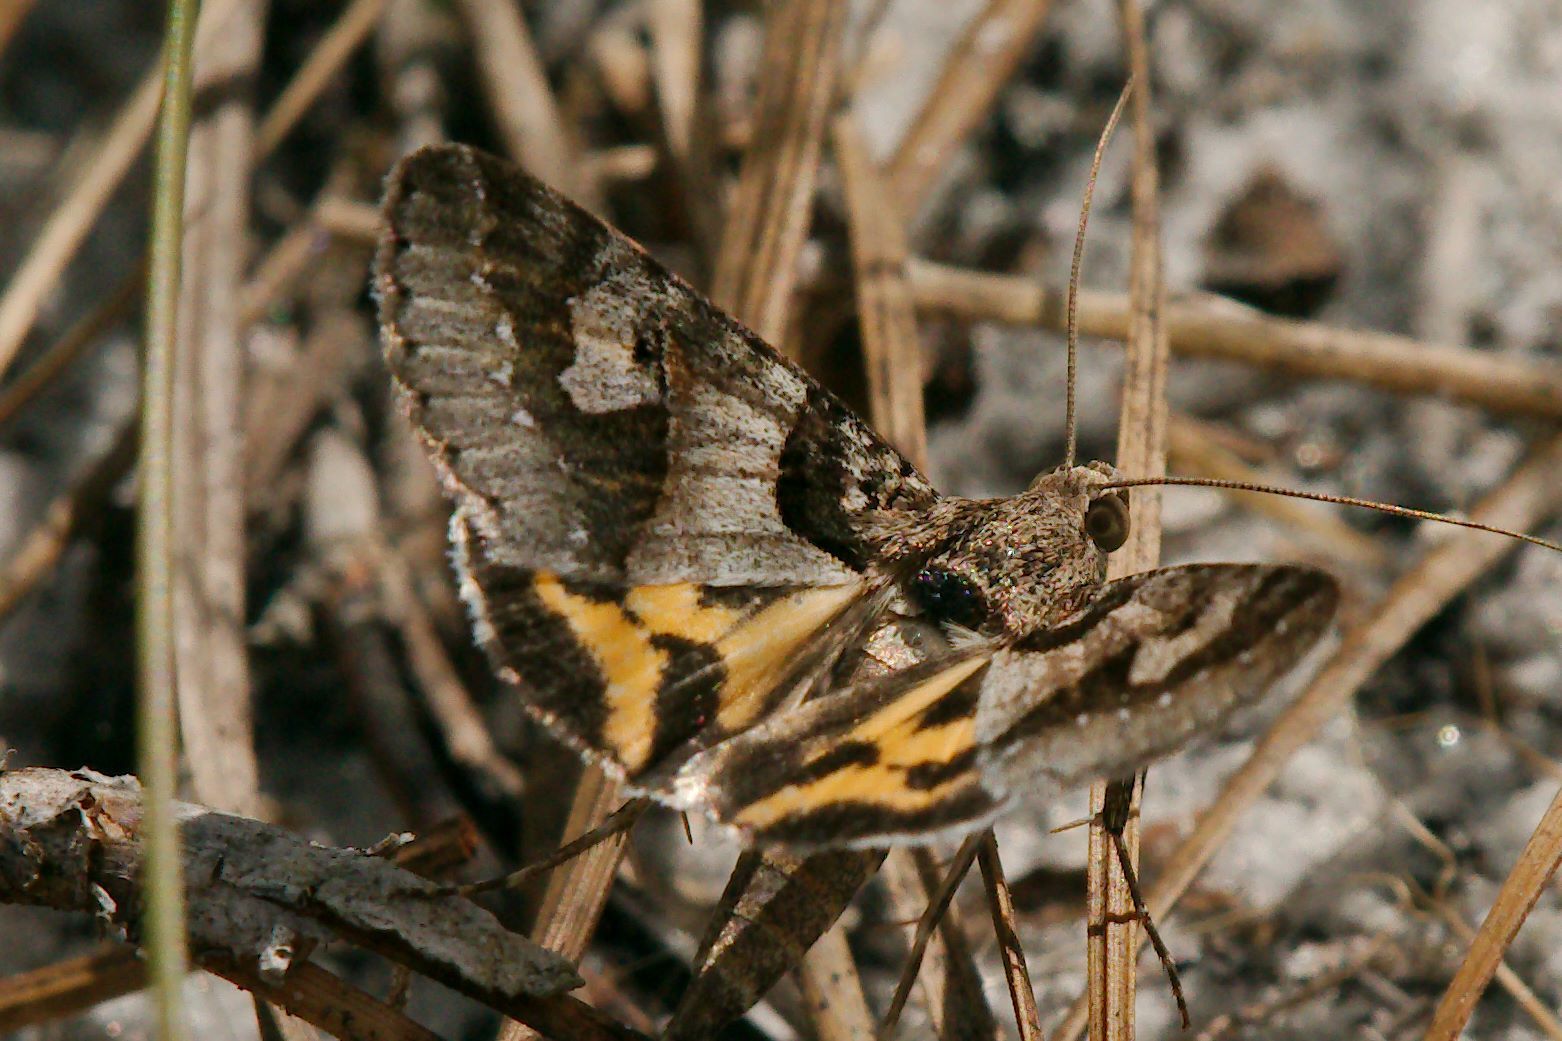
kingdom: Animalia
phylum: Arthropoda
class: Insecta
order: Lepidoptera
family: Erebidae
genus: Drasteria
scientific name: Drasteria graphica
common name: Coastal graphic
